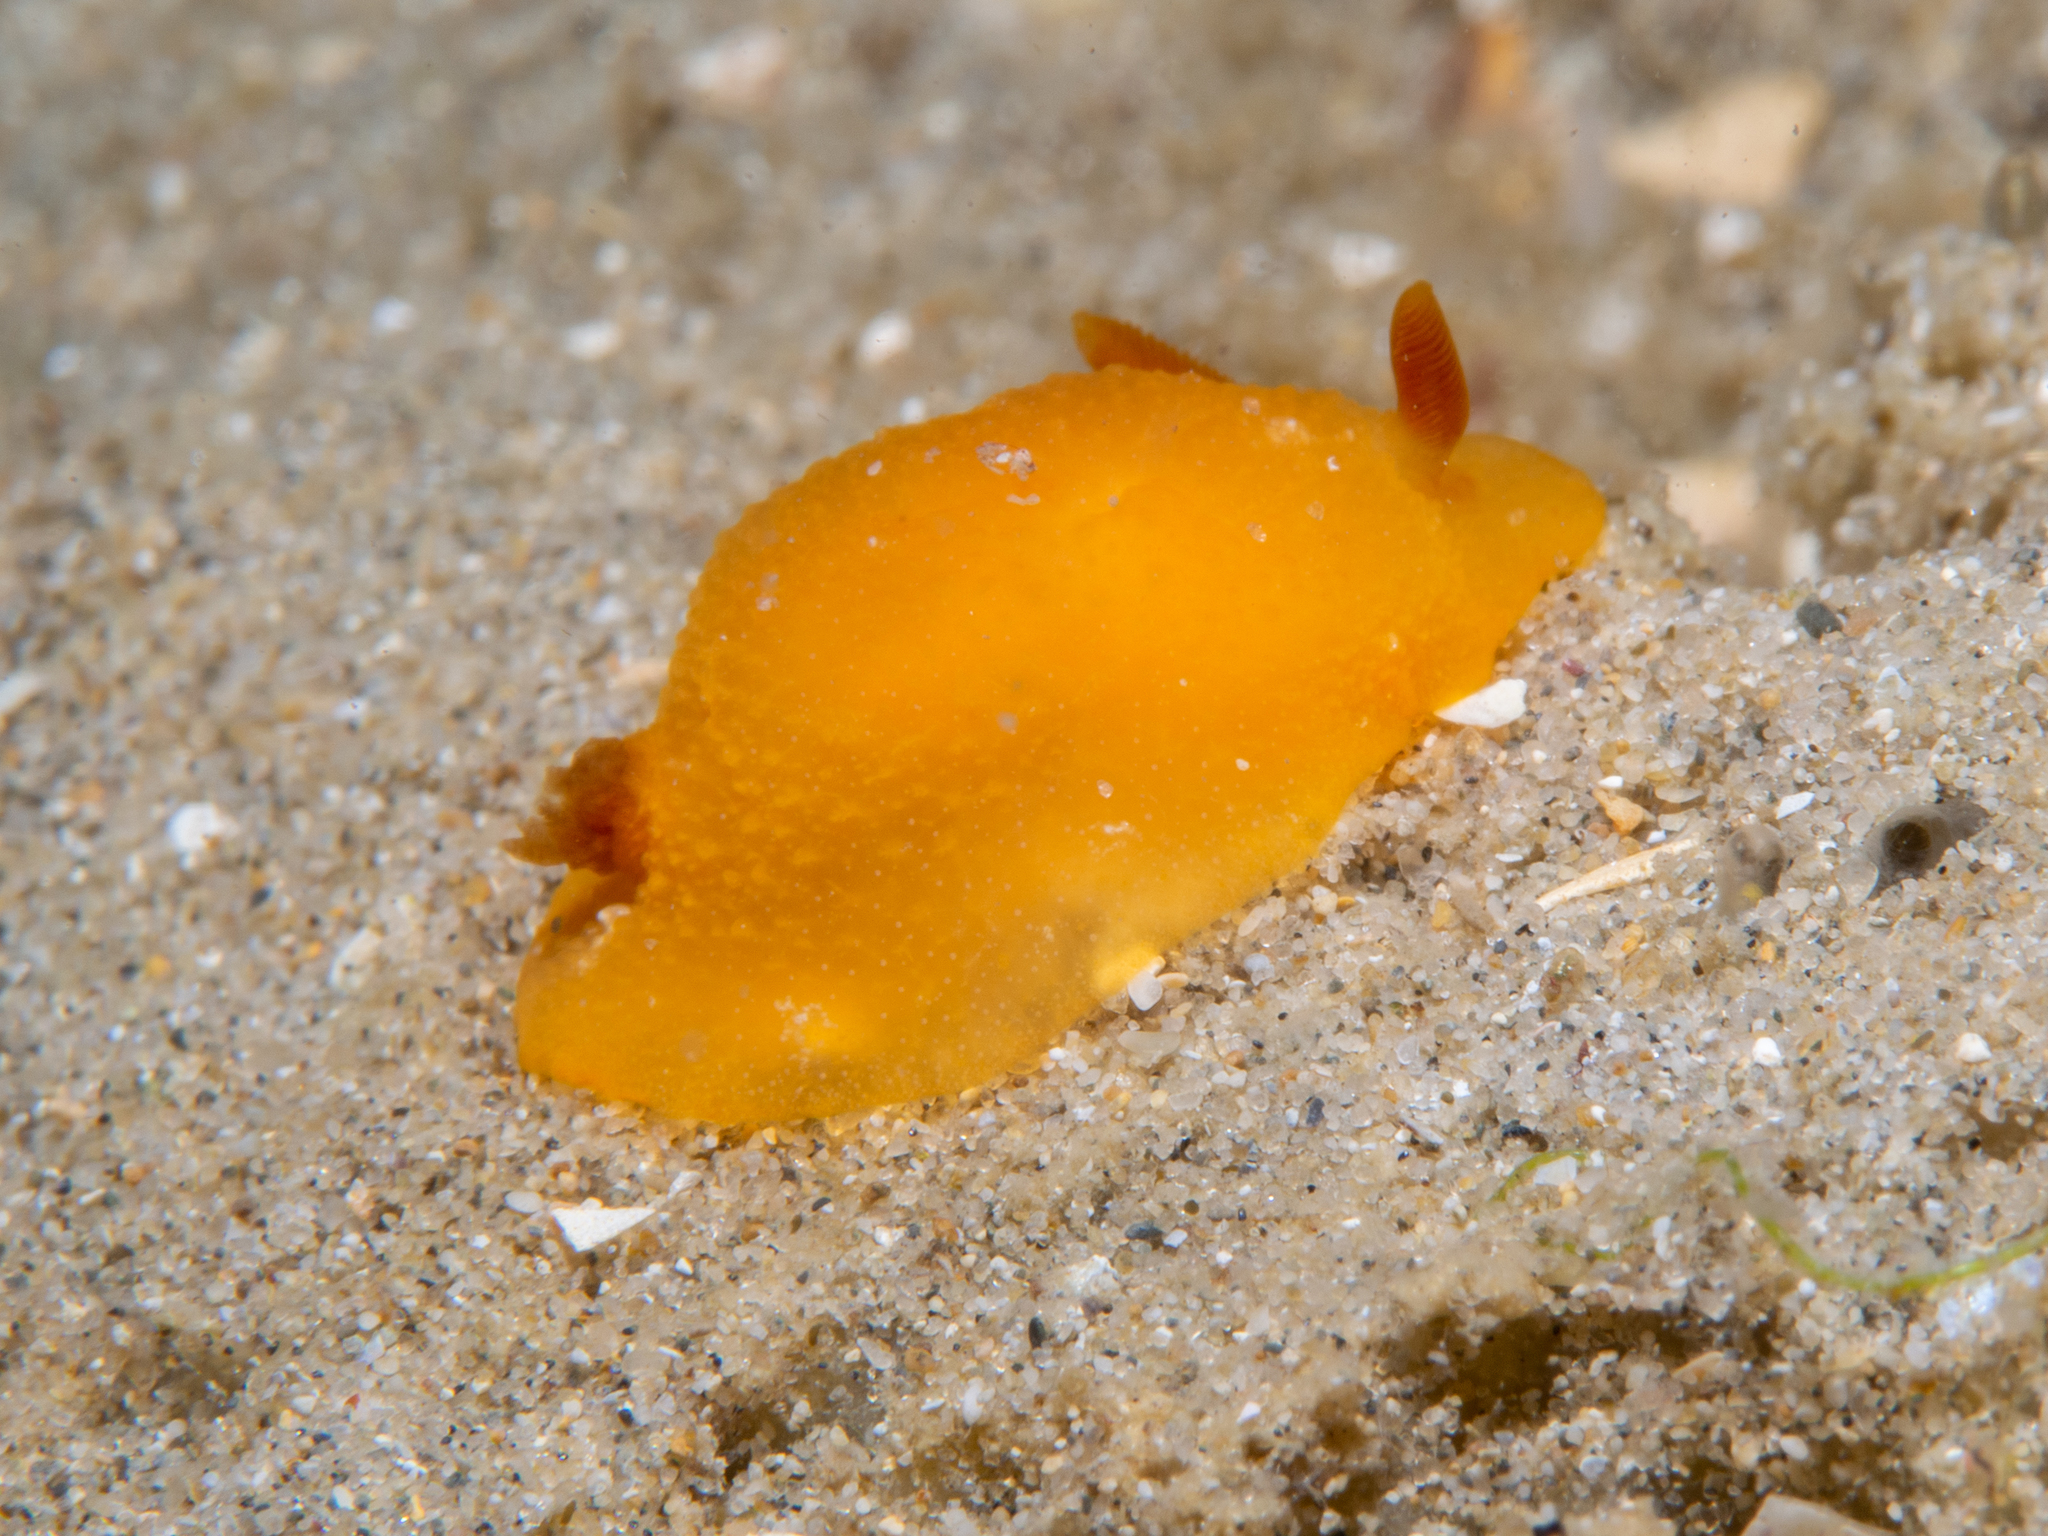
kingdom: Animalia
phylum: Mollusca
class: Gastropoda
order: Nudibranchia
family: Dendrodorididae
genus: Doriopsilla
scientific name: Doriopsilla carneola
